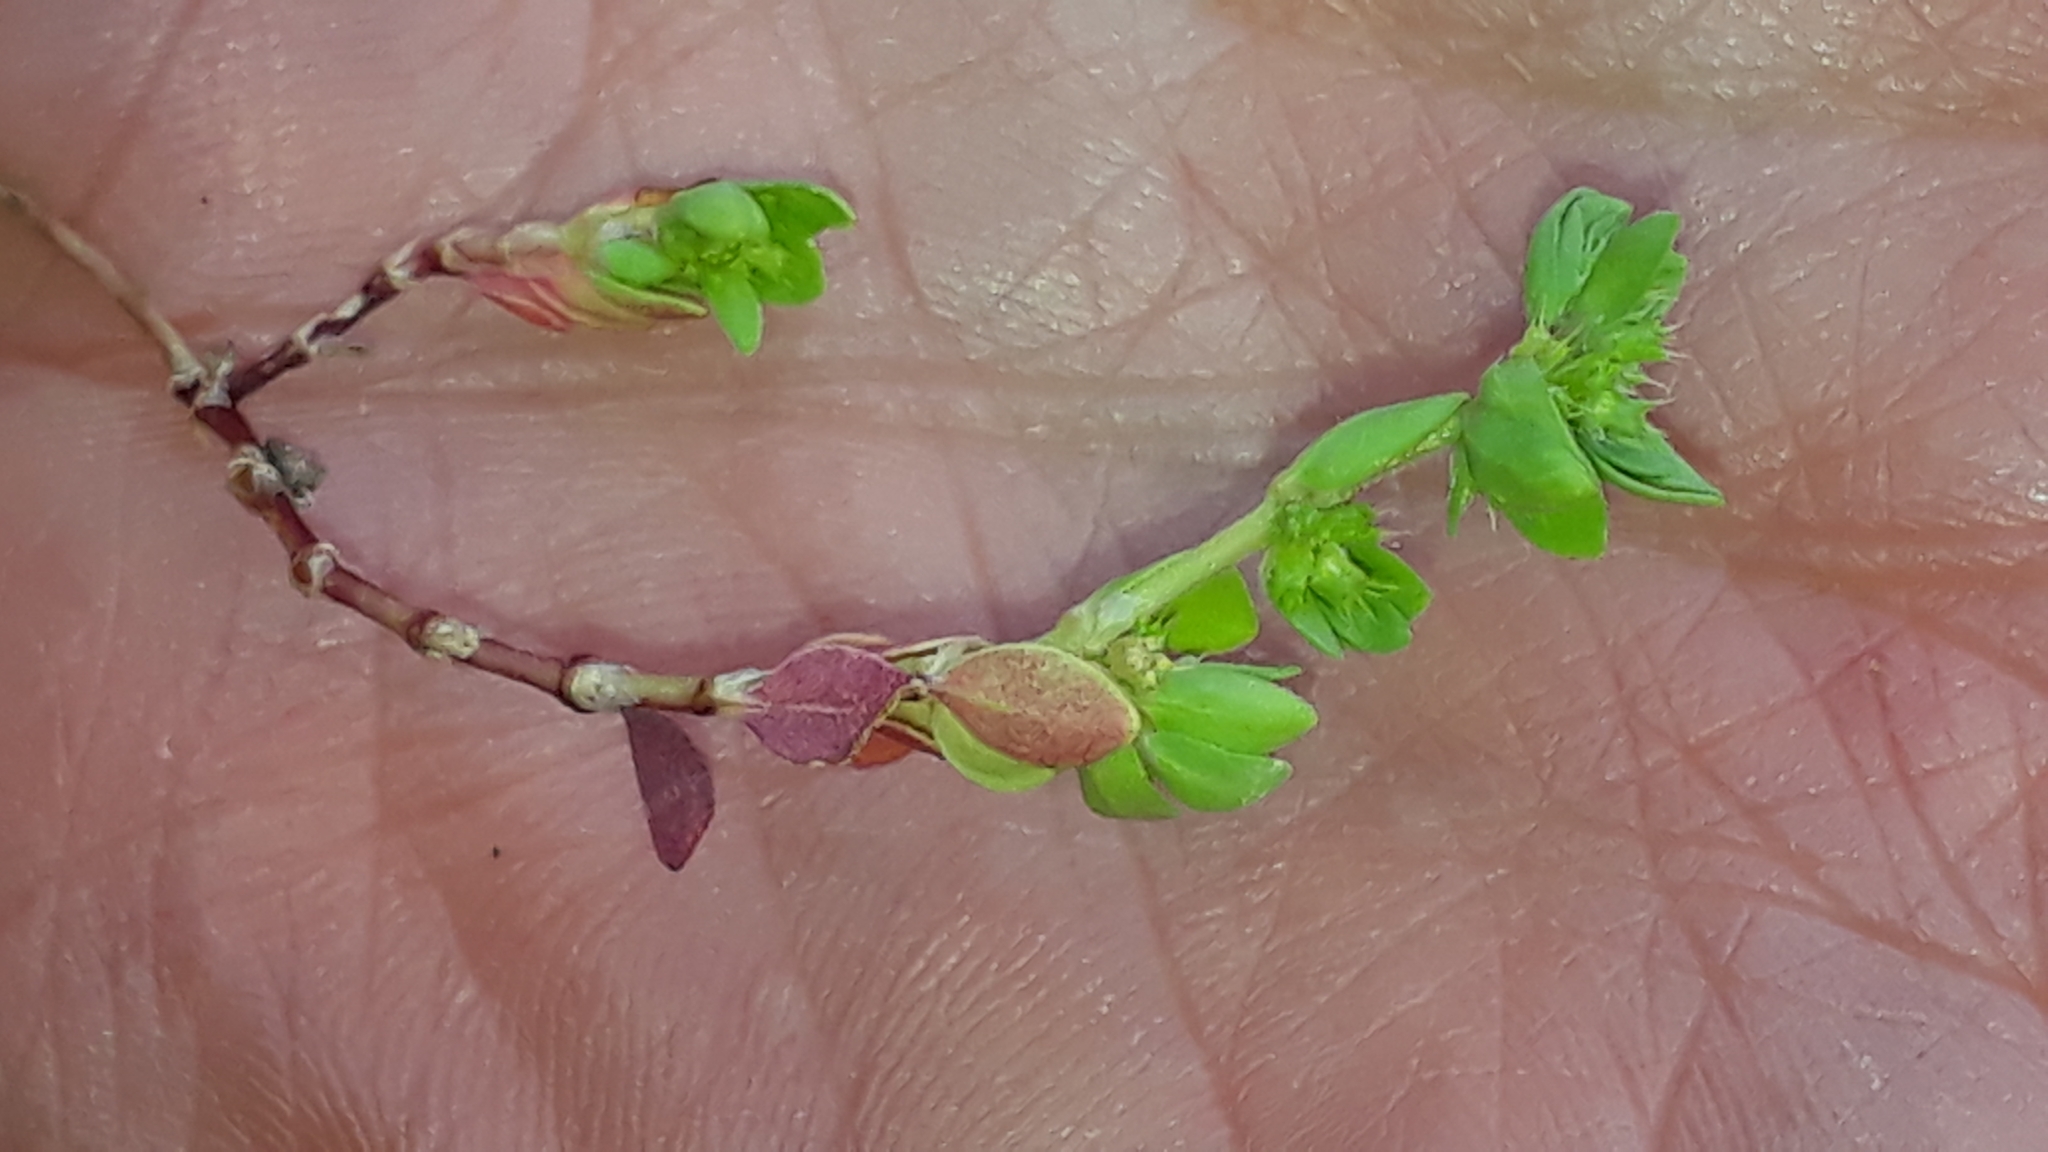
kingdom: Plantae
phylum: Tracheophyta
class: Magnoliopsida
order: Caryophyllales
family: Caryophyllaceae
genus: Paronychia
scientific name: Paronychia echinulata
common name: Eurasian nailwort
